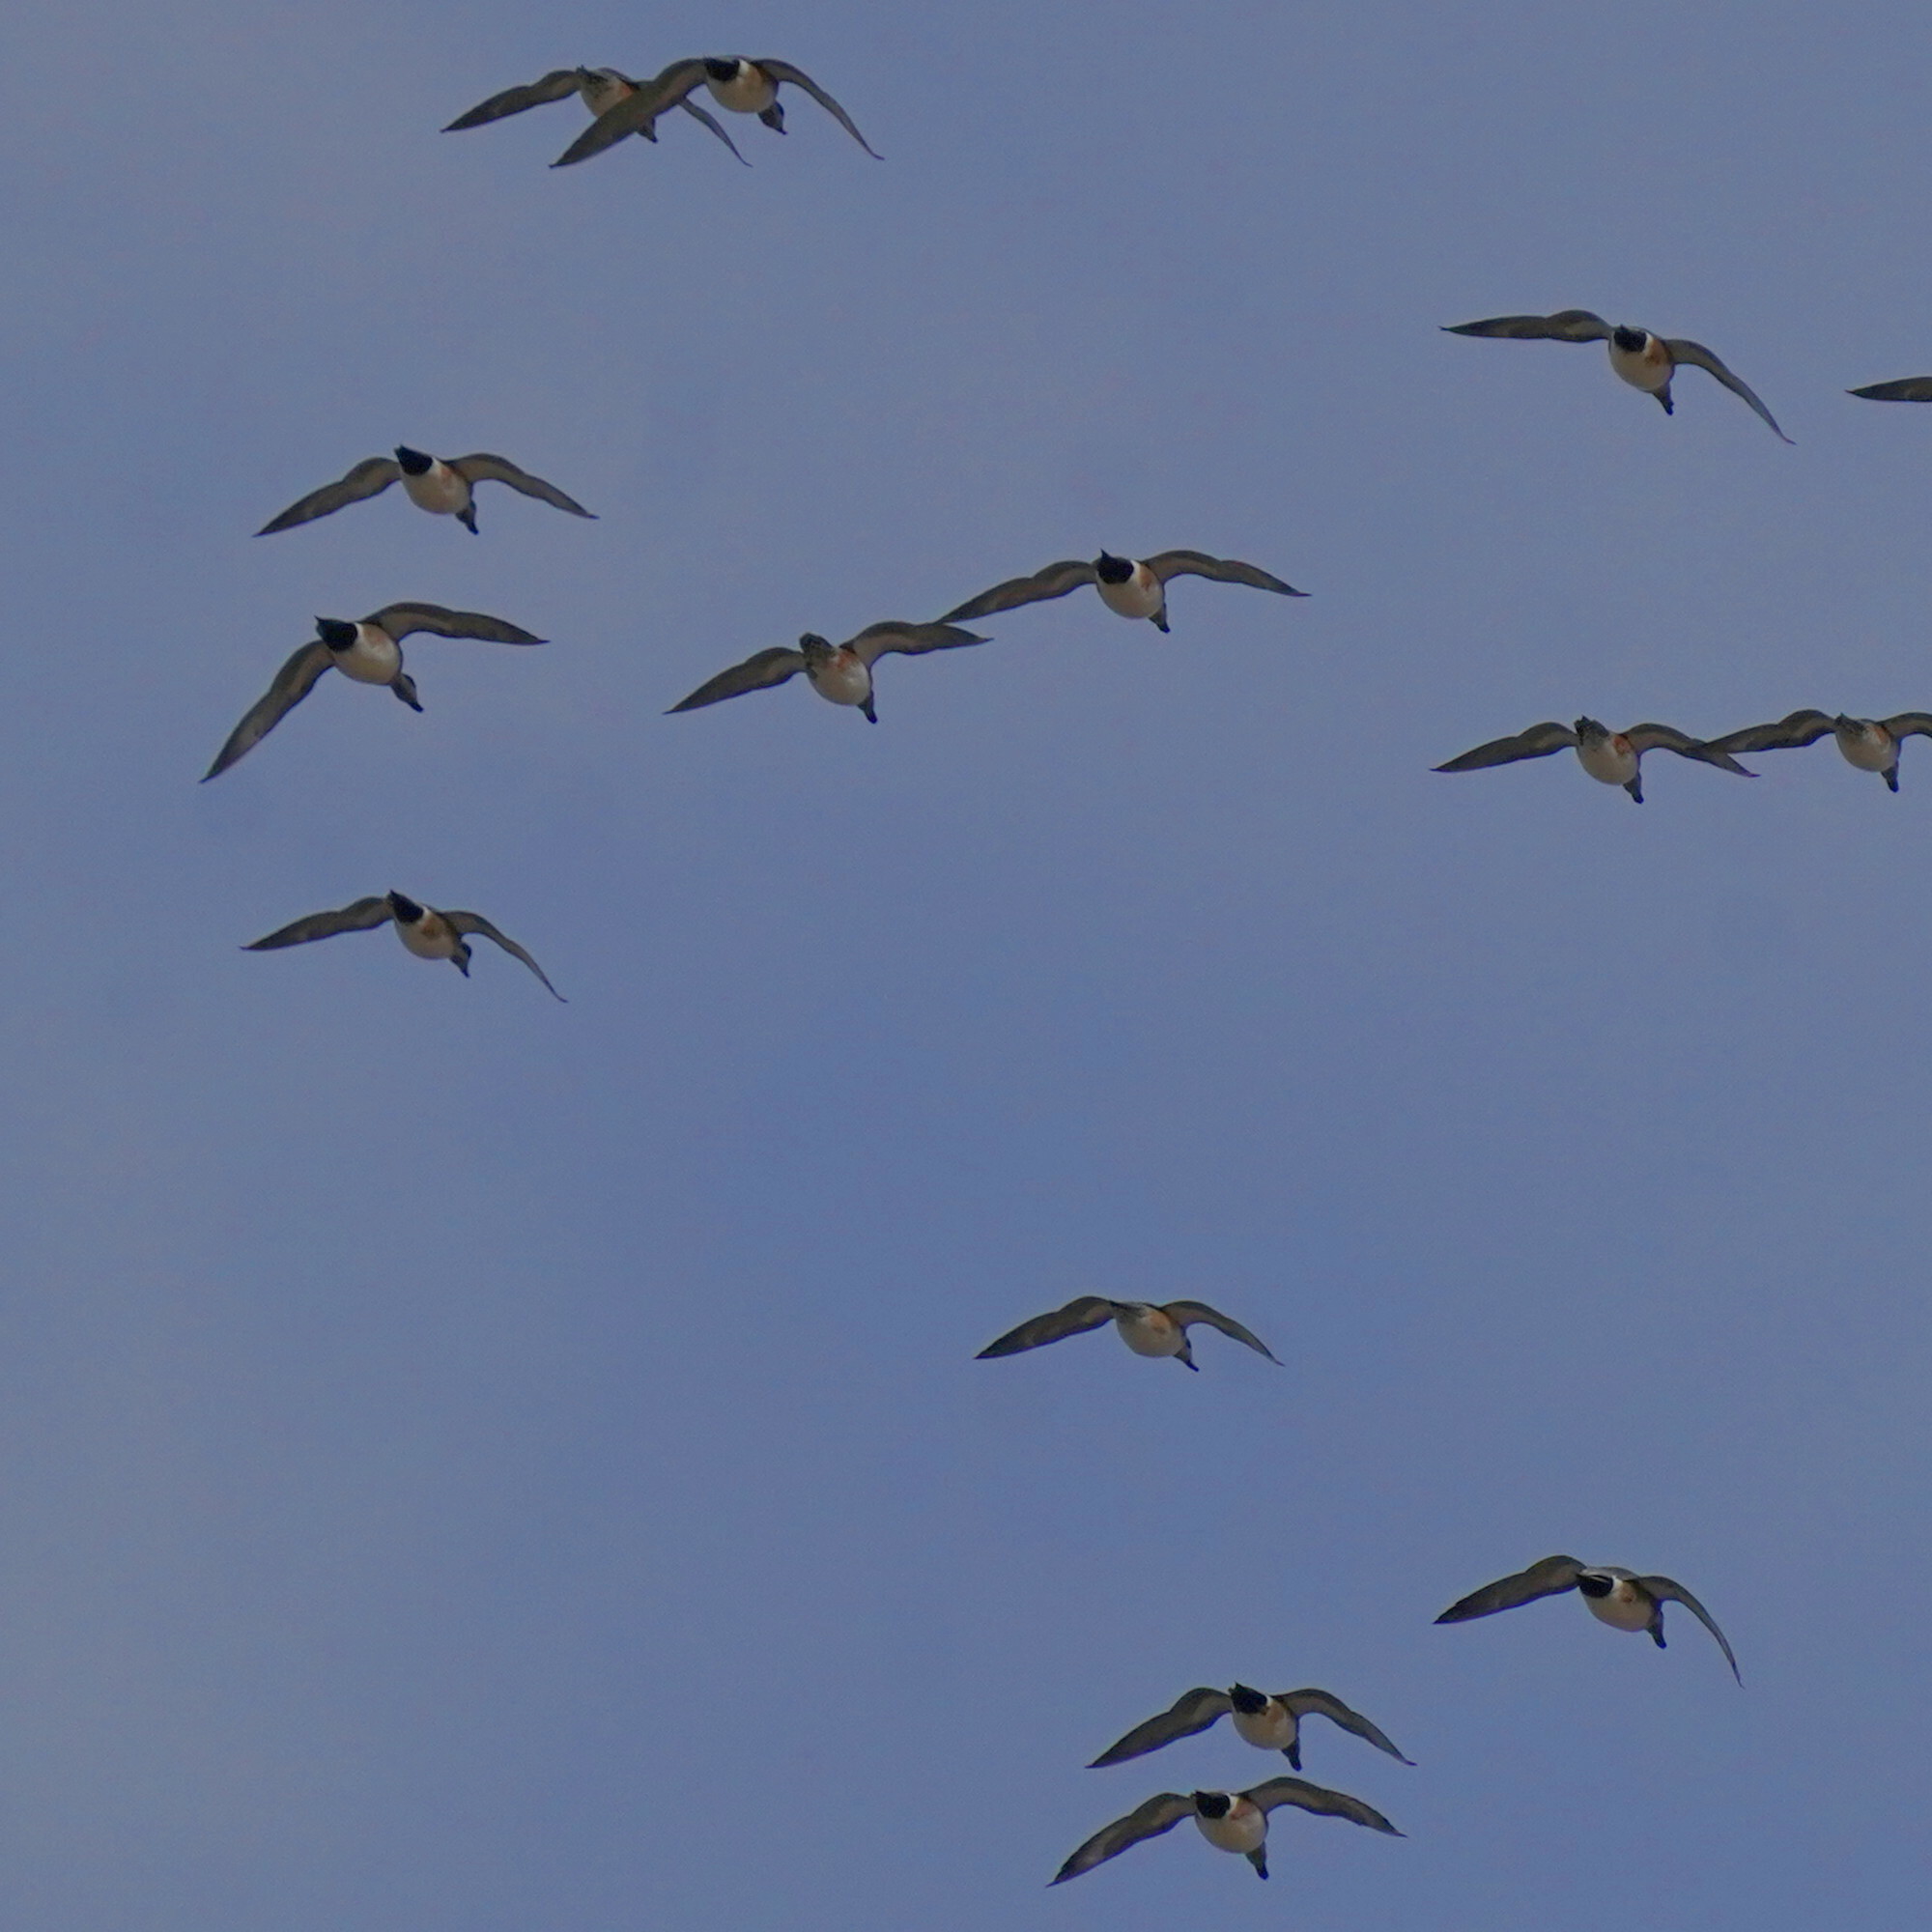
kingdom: Animalia
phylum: Chordata
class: Aves
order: Anseriformes
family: Anatidae
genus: Mareca
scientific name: Mareca americana
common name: American wigeon
